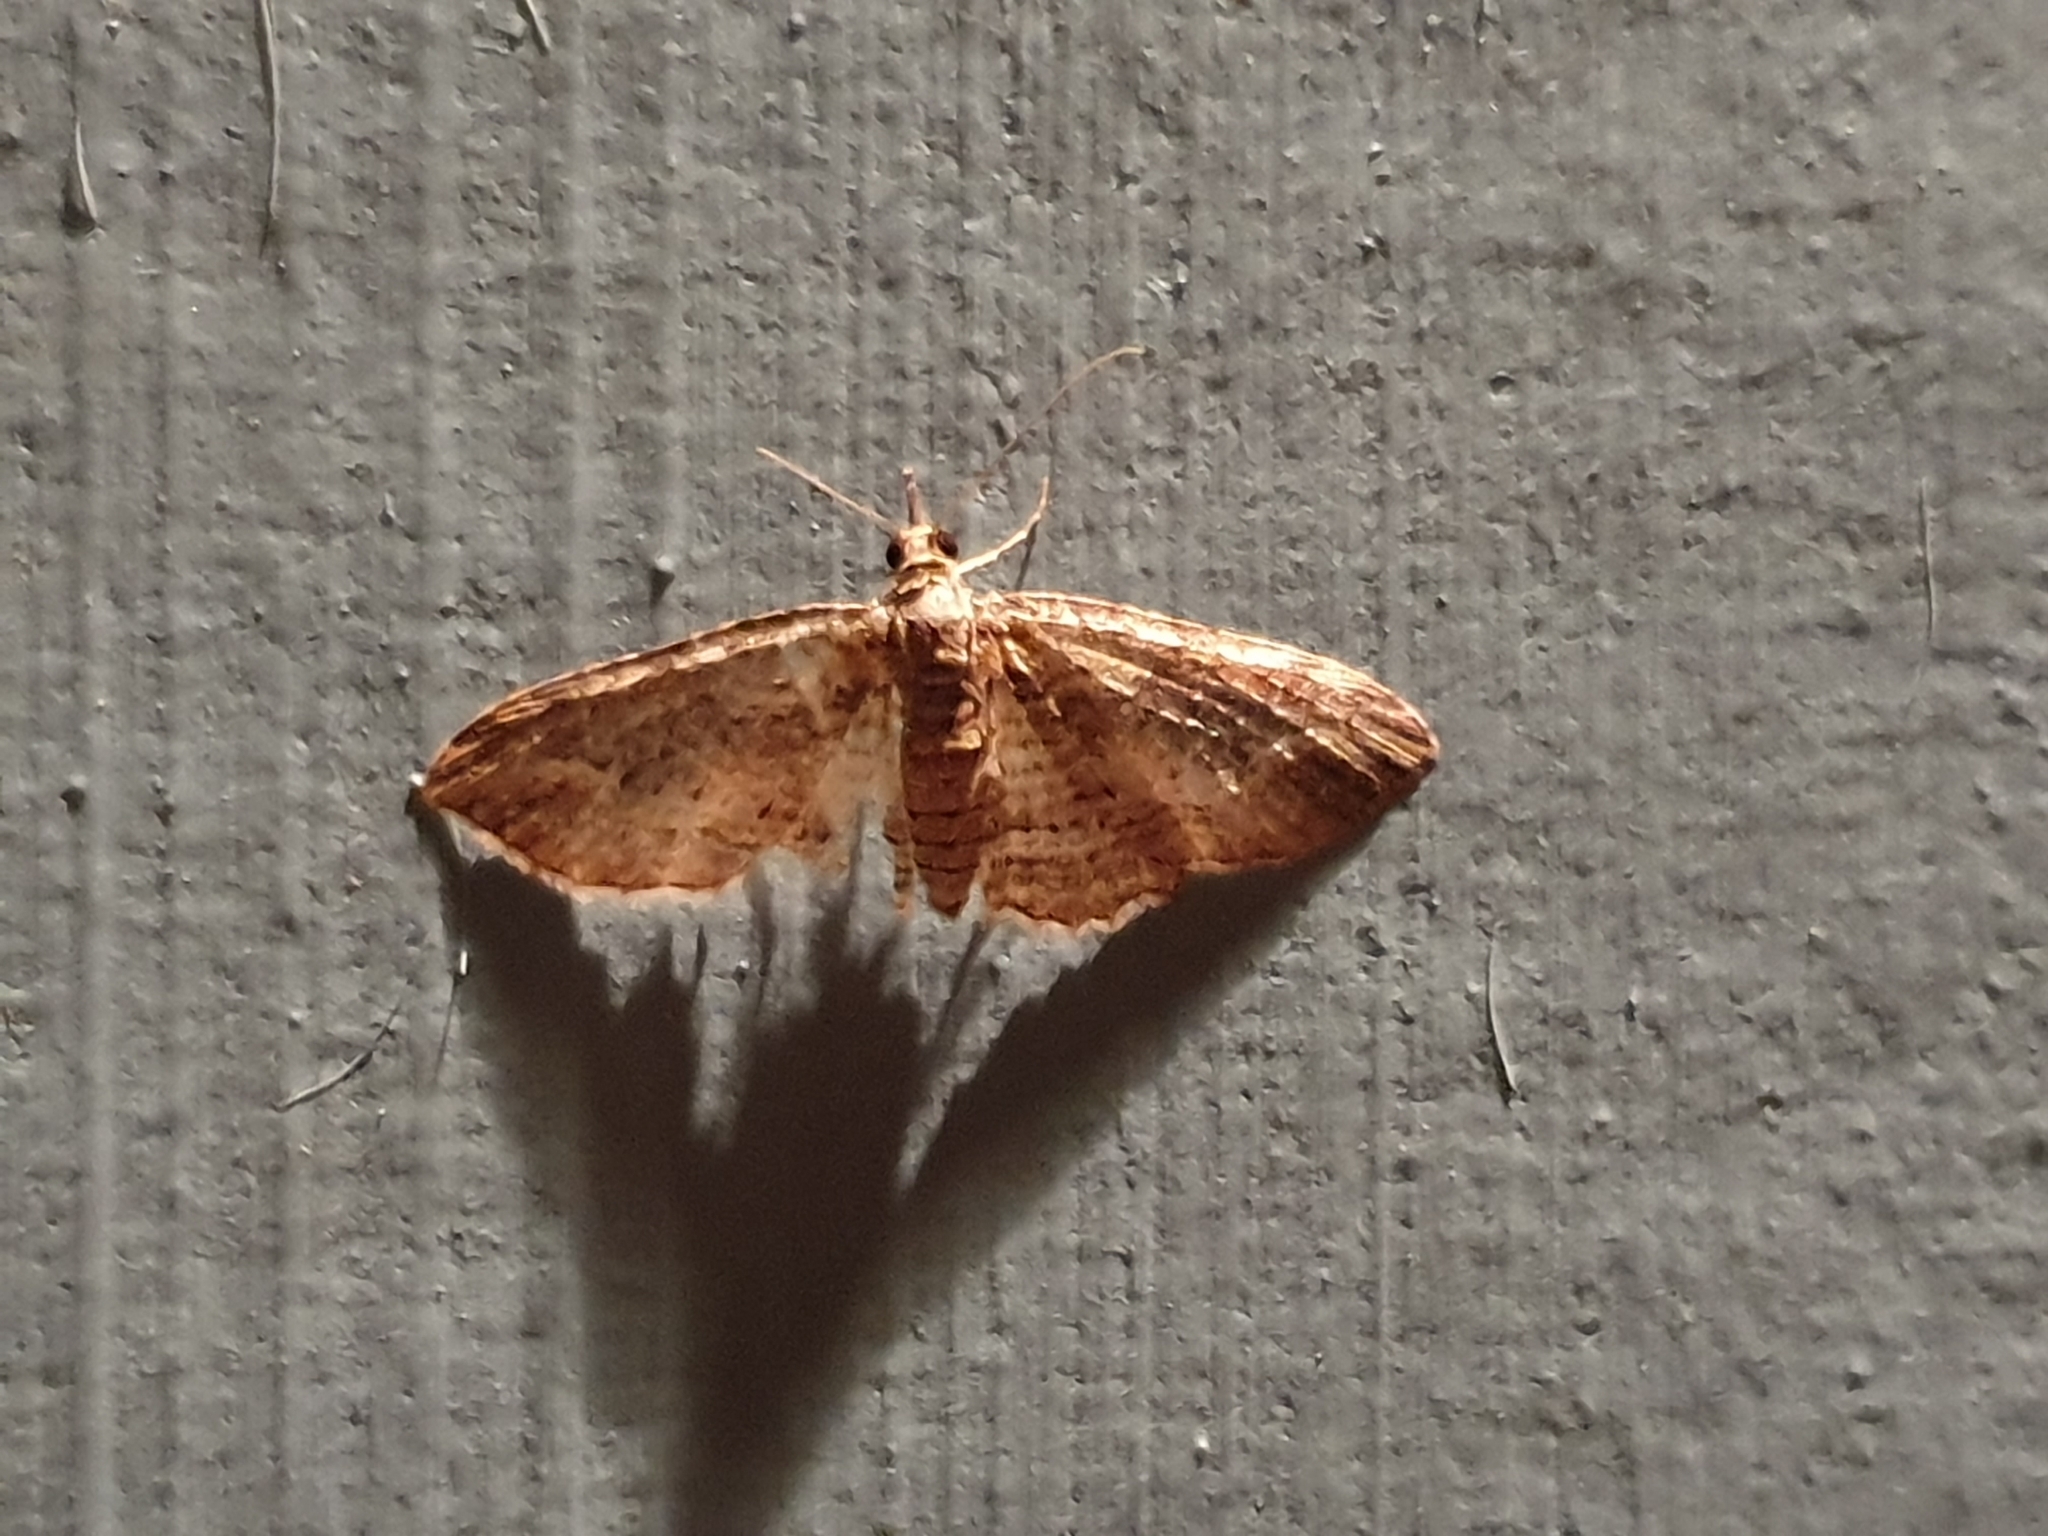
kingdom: Animalia
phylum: Arthropoda
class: Insecta
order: Lepidoptera
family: Geometridae
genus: Chloroclystis
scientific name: Chloroclystis filata
